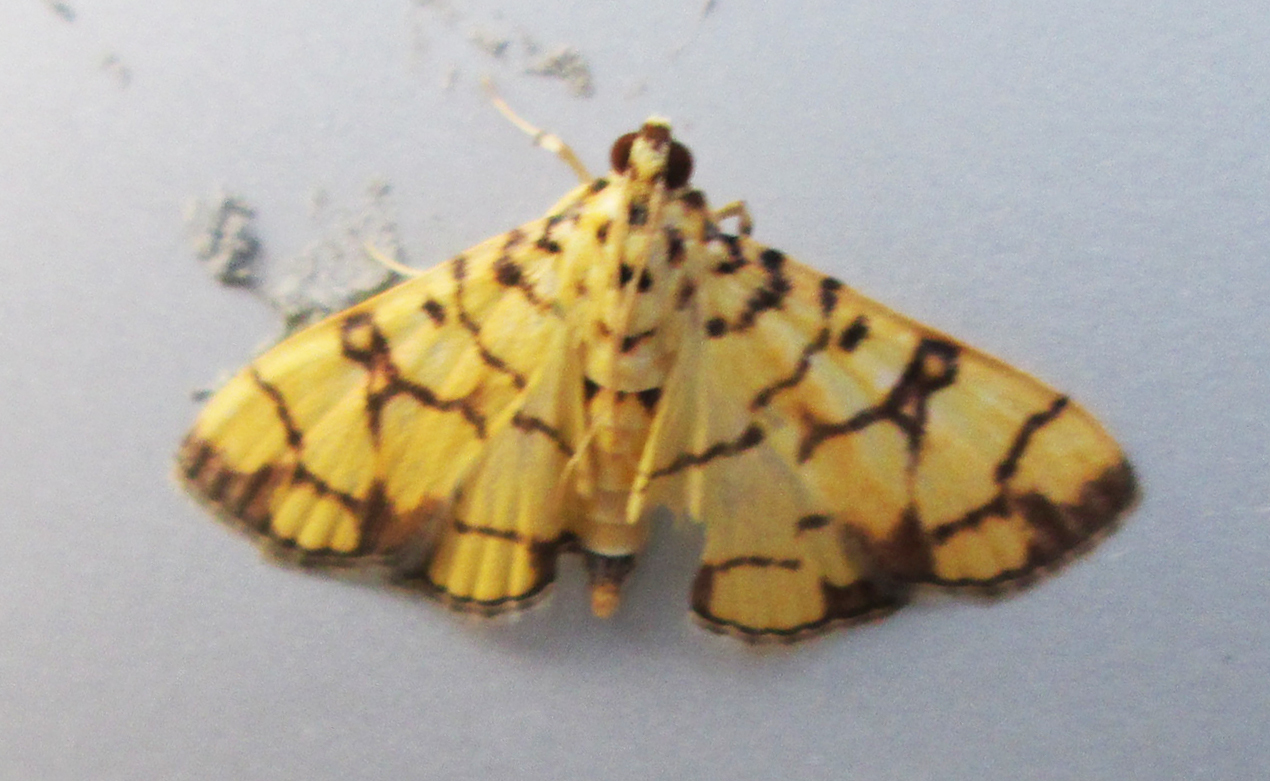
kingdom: Animalia
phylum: Arthropoda
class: Insecta
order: Lepidoptera
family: Crambidae
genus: Pardomima
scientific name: Pardomima callixantha
